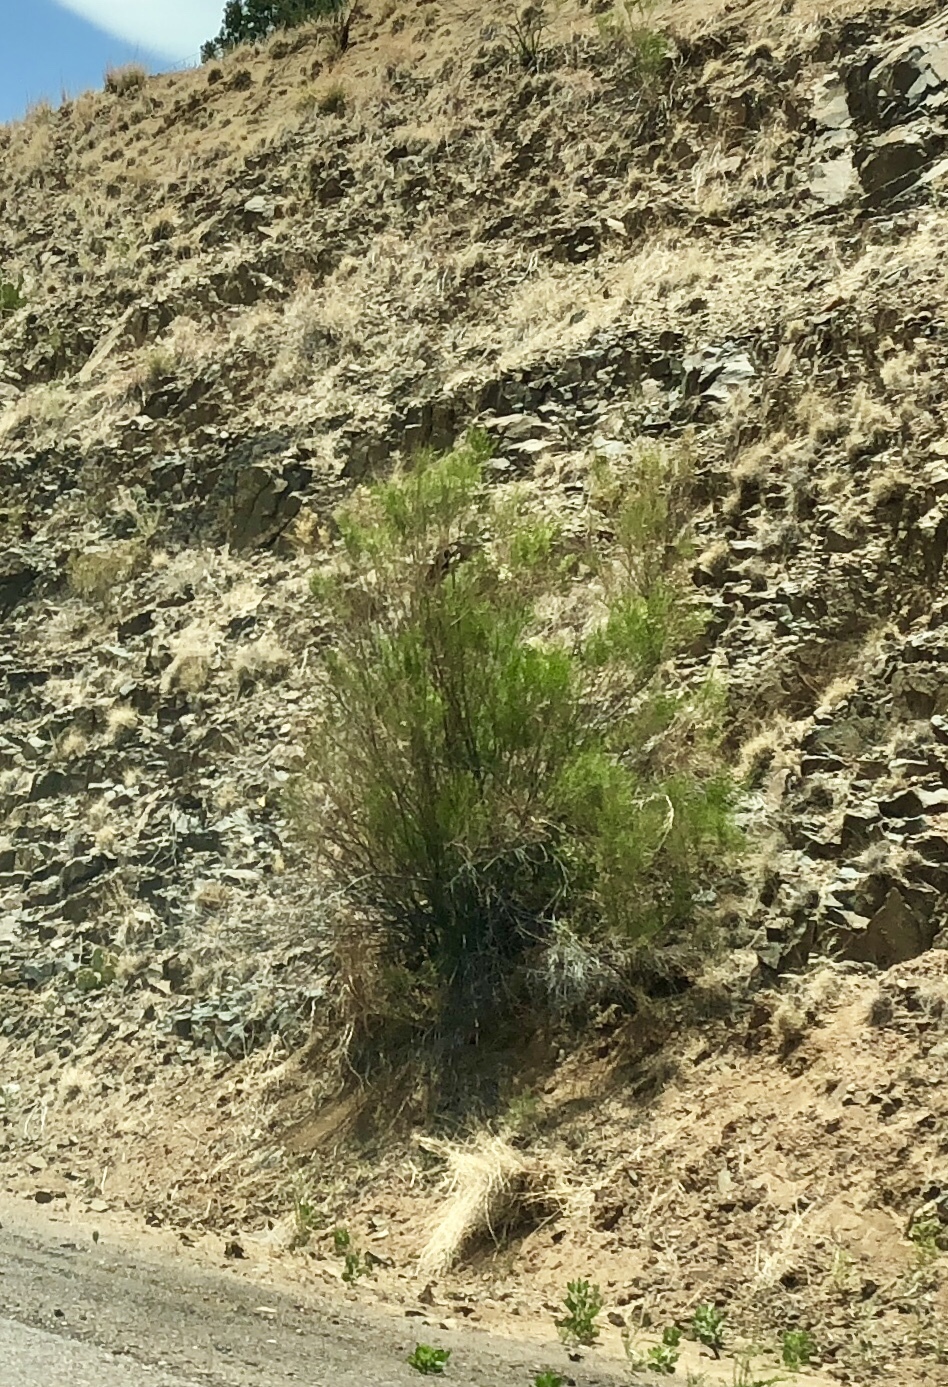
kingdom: Plantae
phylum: Tracheophyta
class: Magnoliopsida
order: Asterales
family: Asteraceae
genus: Baccharis
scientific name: Baccharis sarothroides
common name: Desert-broom
